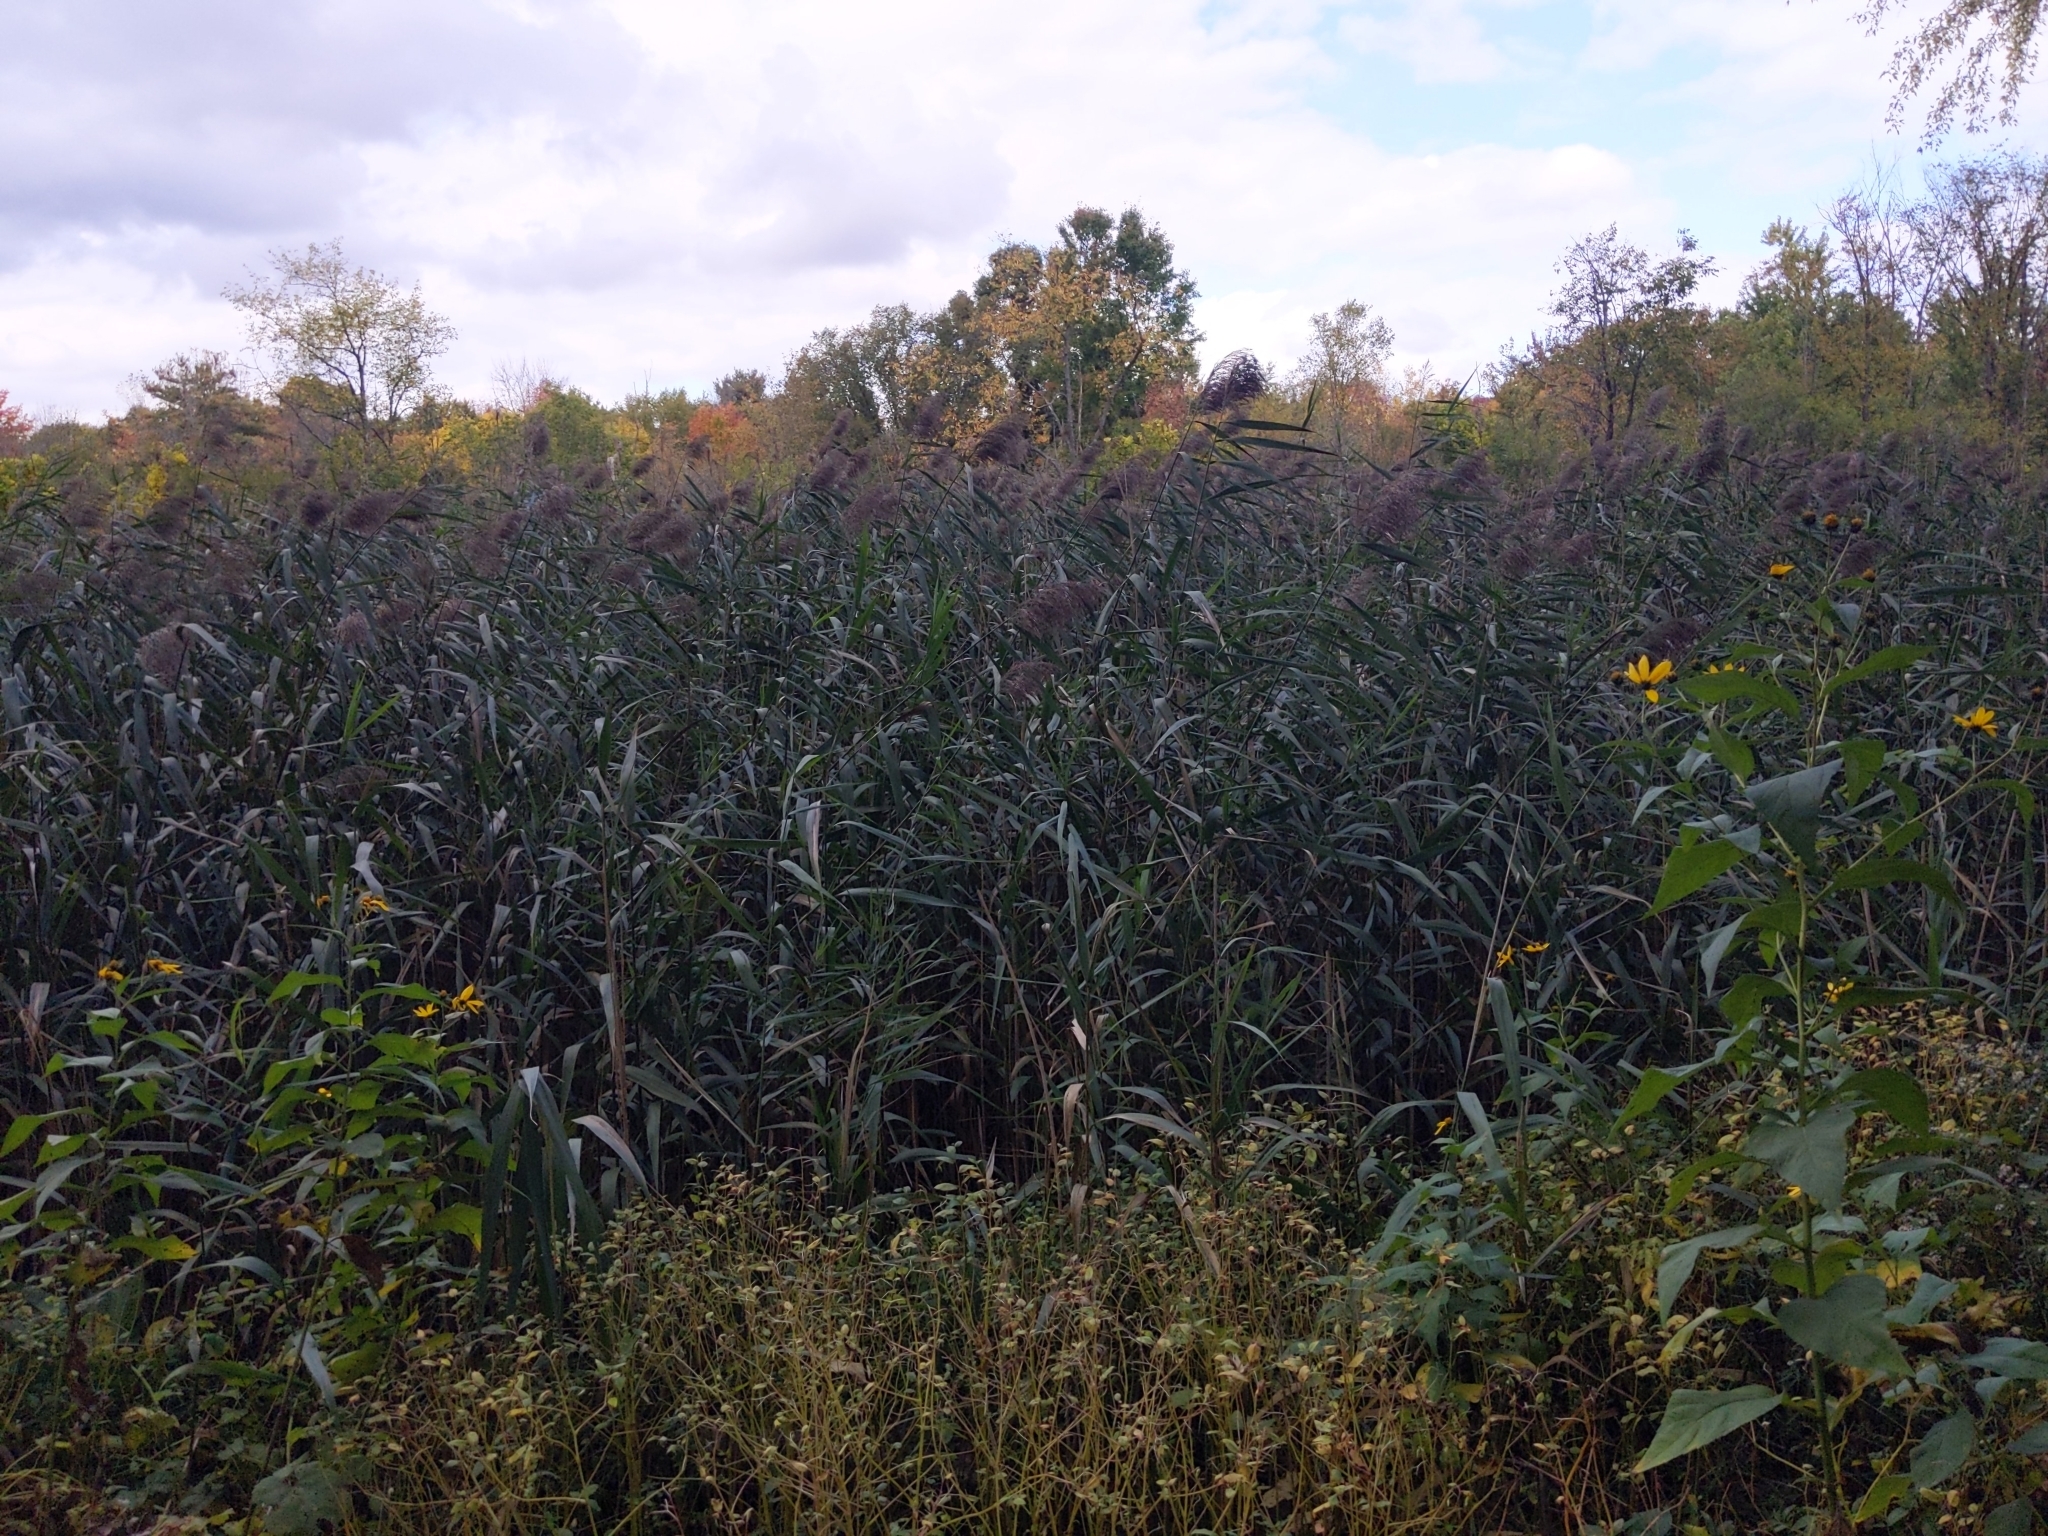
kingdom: Plantae
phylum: Tracheophyta
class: Liliopsida
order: Poales
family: Poaceae
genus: Phragmites
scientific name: Phragmites australis
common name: Common reed
